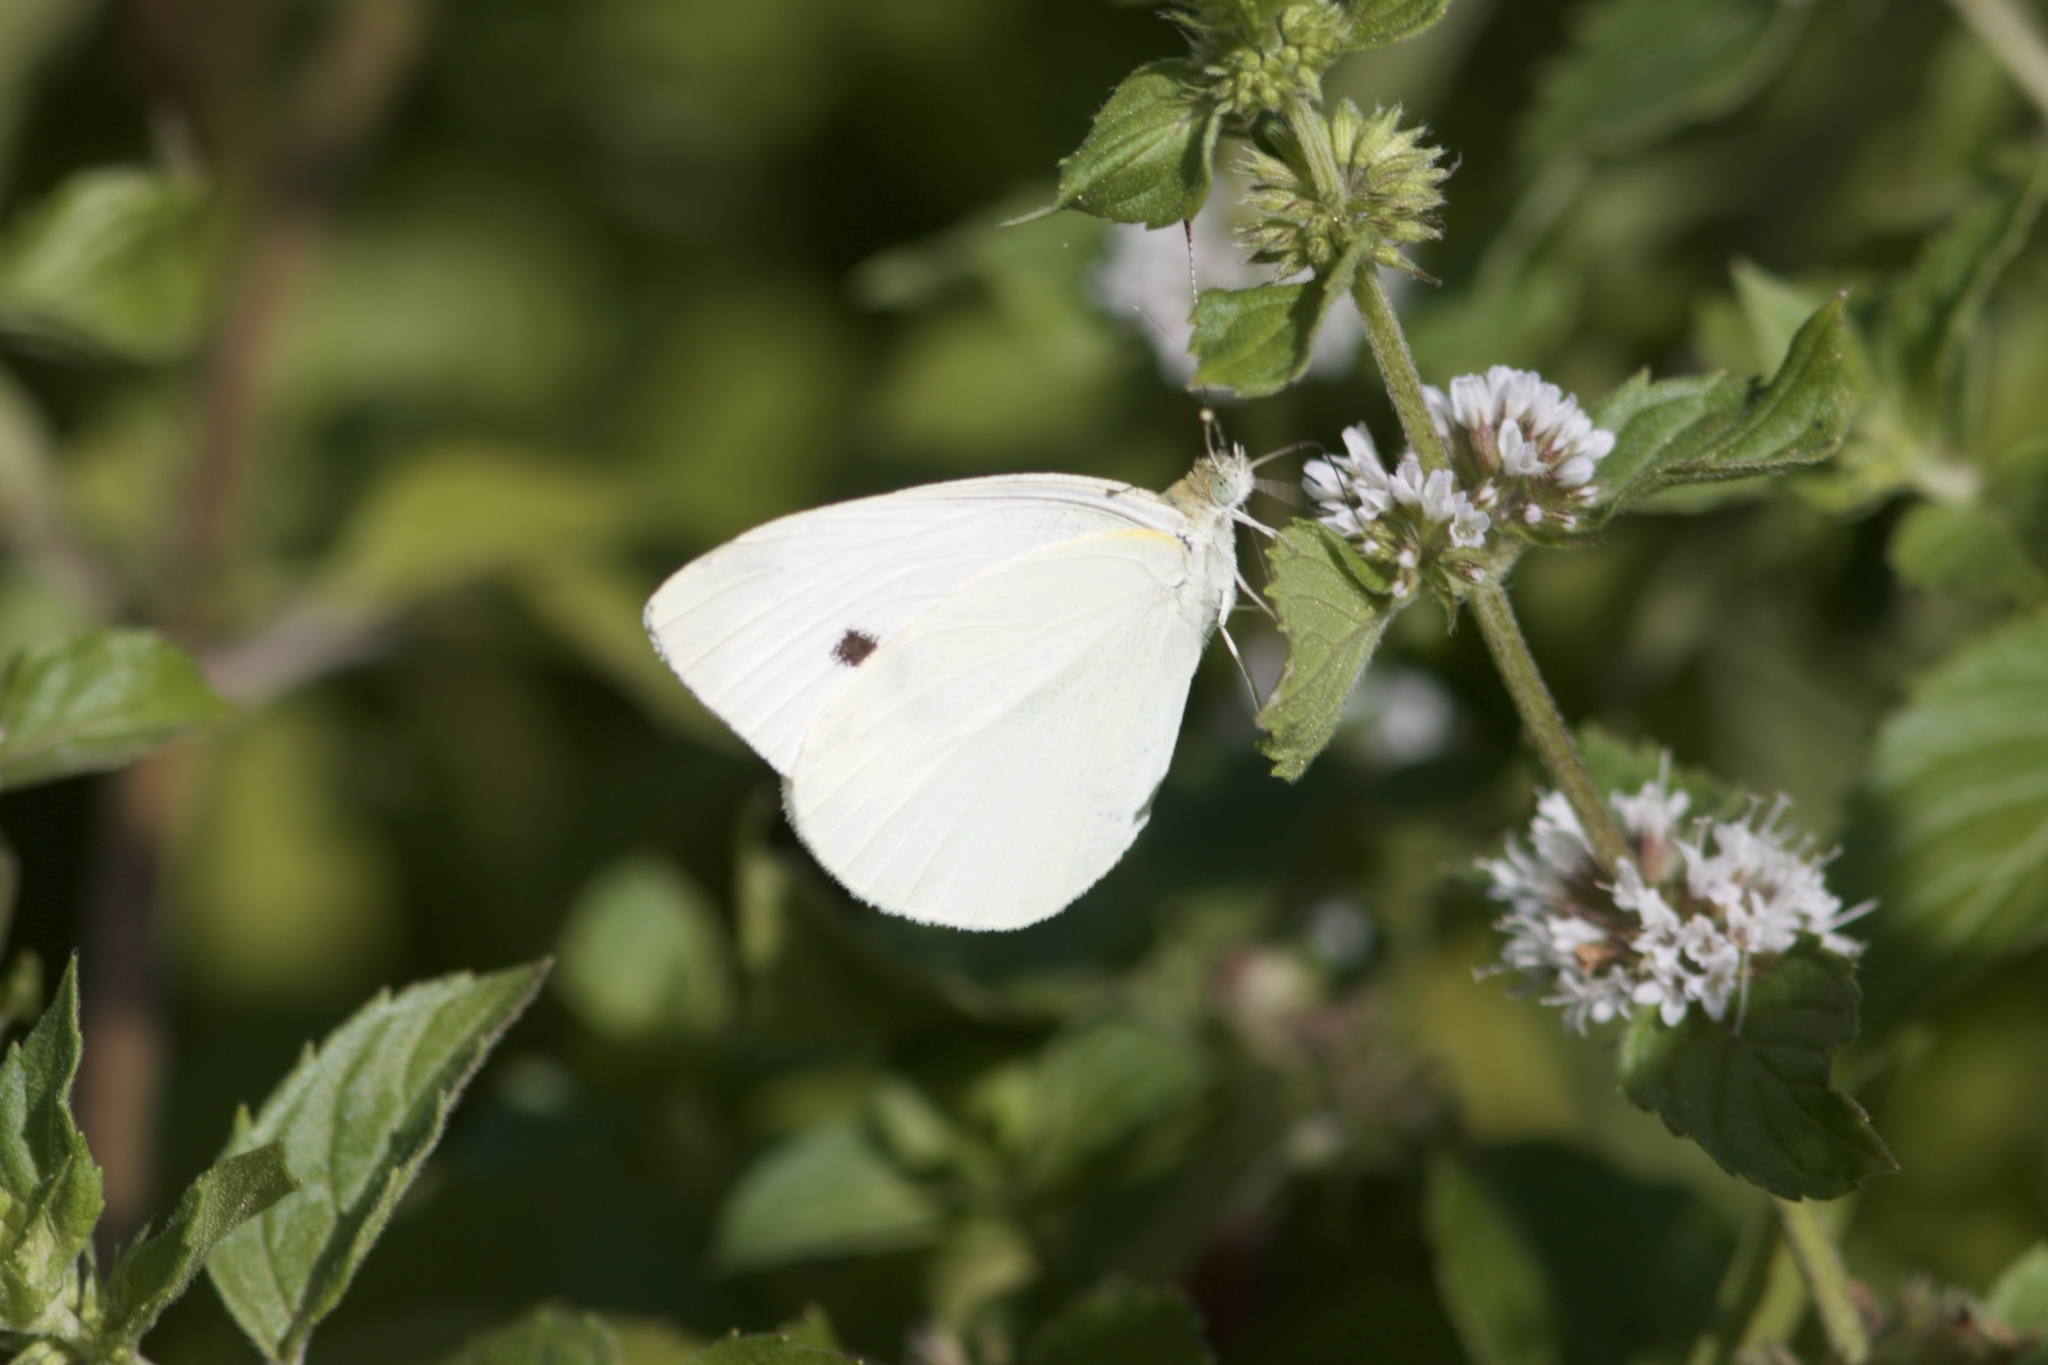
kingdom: Animalia
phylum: Arthropoda
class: Insecta
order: Lepidoptera
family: Pieridae
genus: Pieris
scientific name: Pieris rapae
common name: Small white
